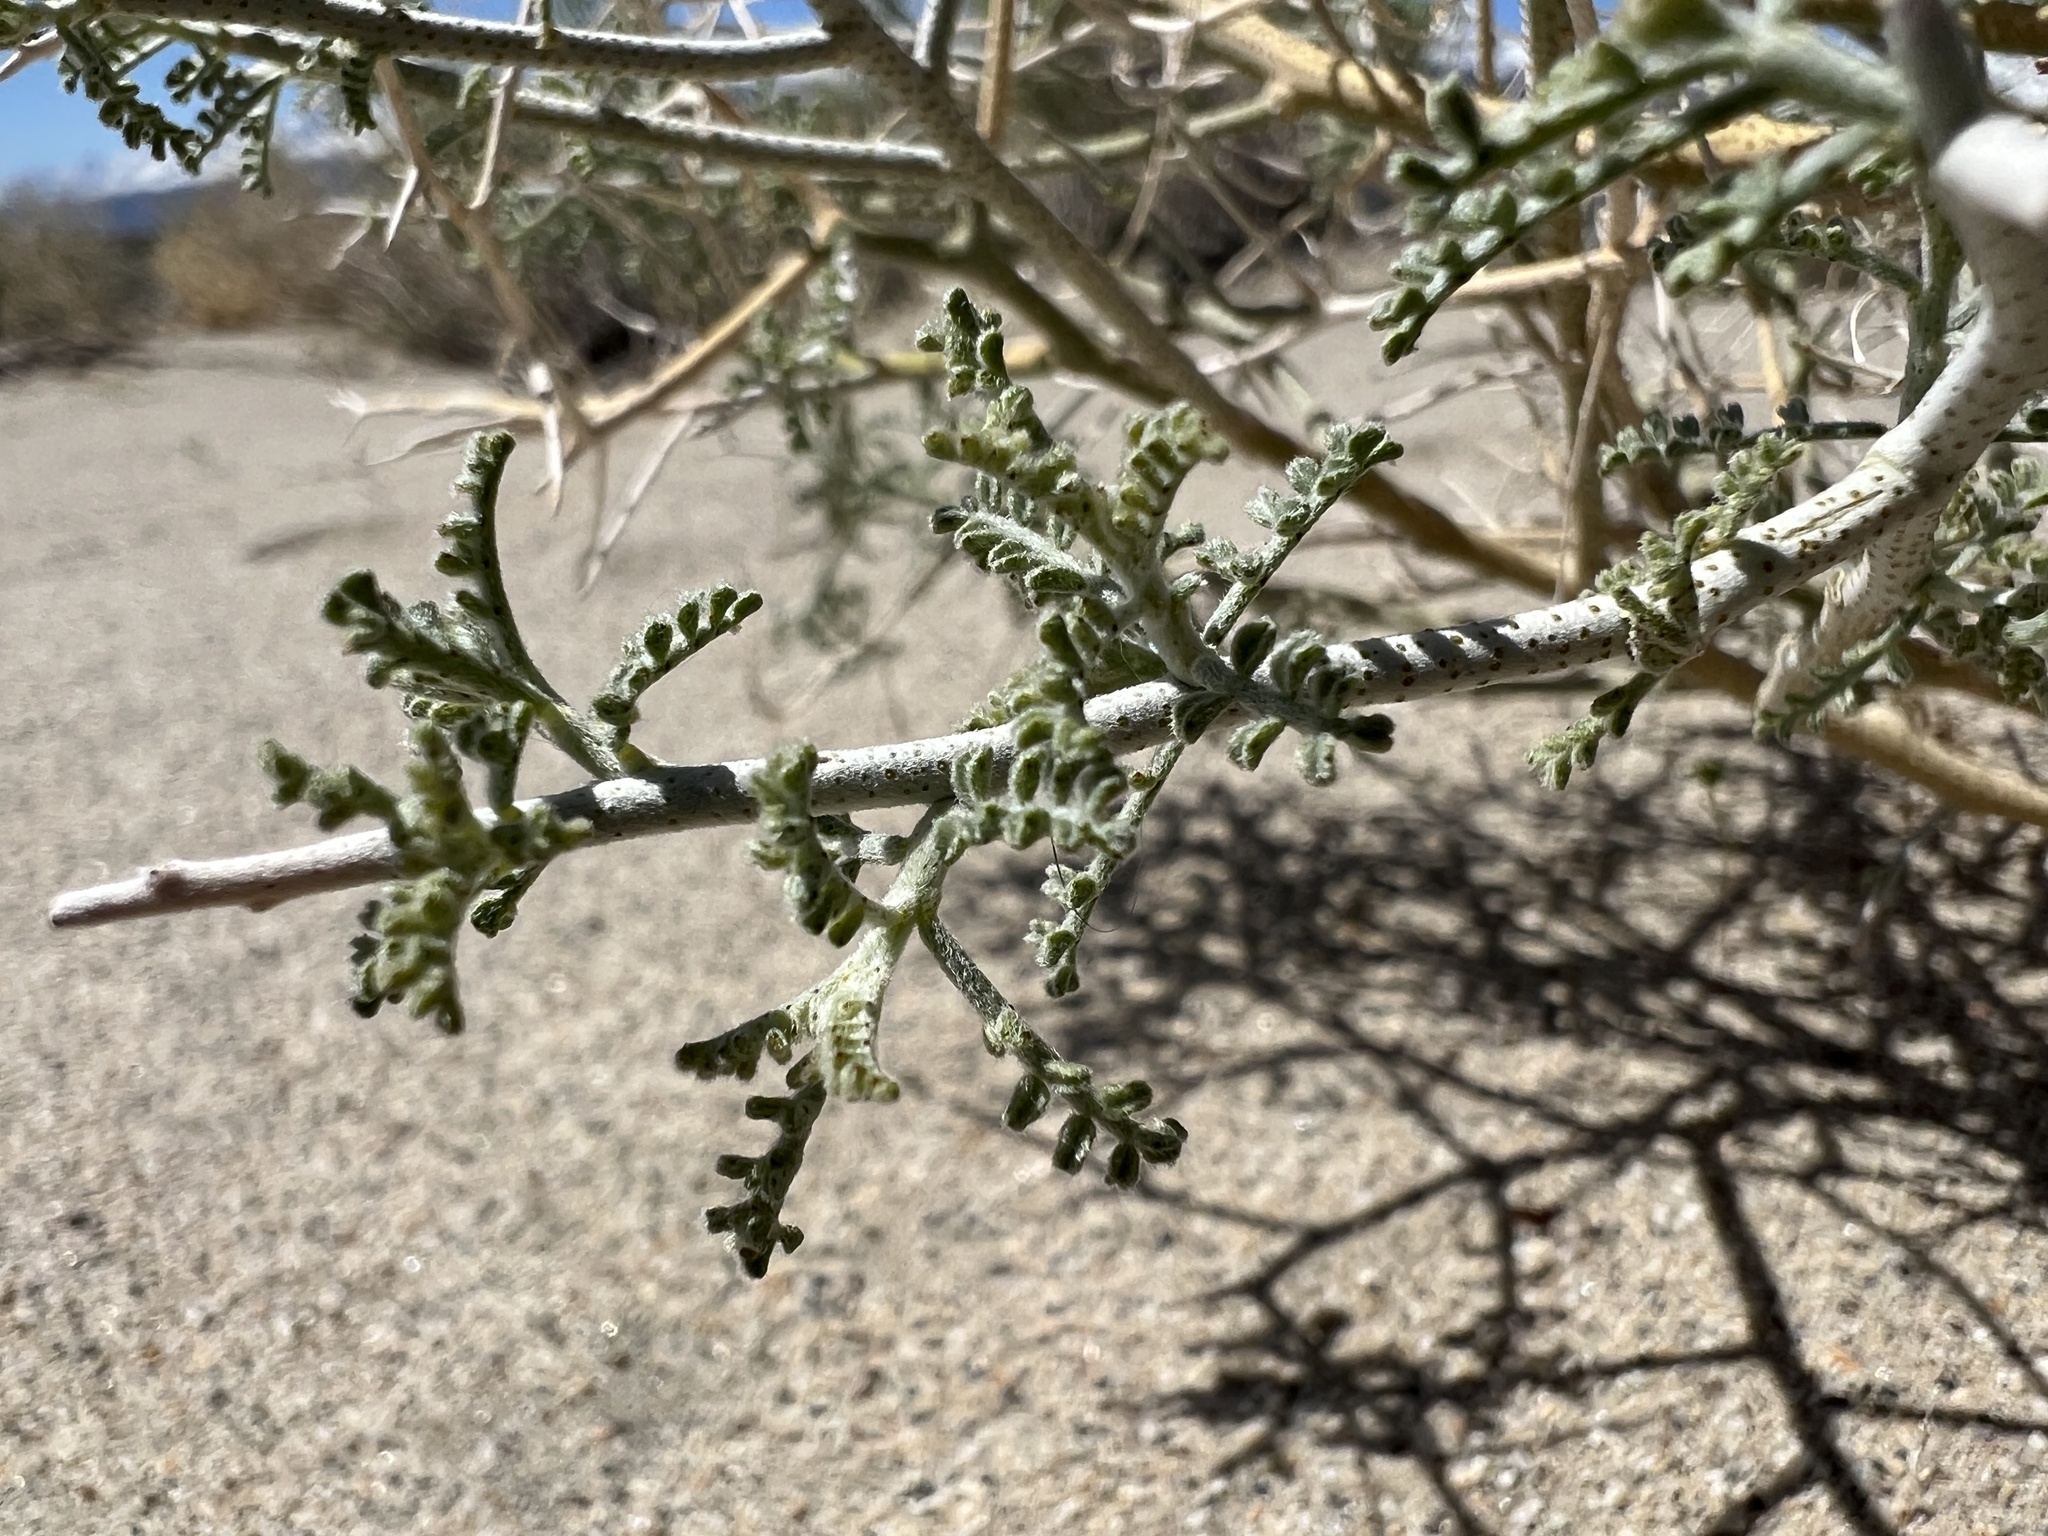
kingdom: Plantae
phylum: Tracheophyta
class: Magnoliopsida
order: Fabales
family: Fabaceae
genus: Psorothamnus
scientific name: Psorothamnus polydenius
